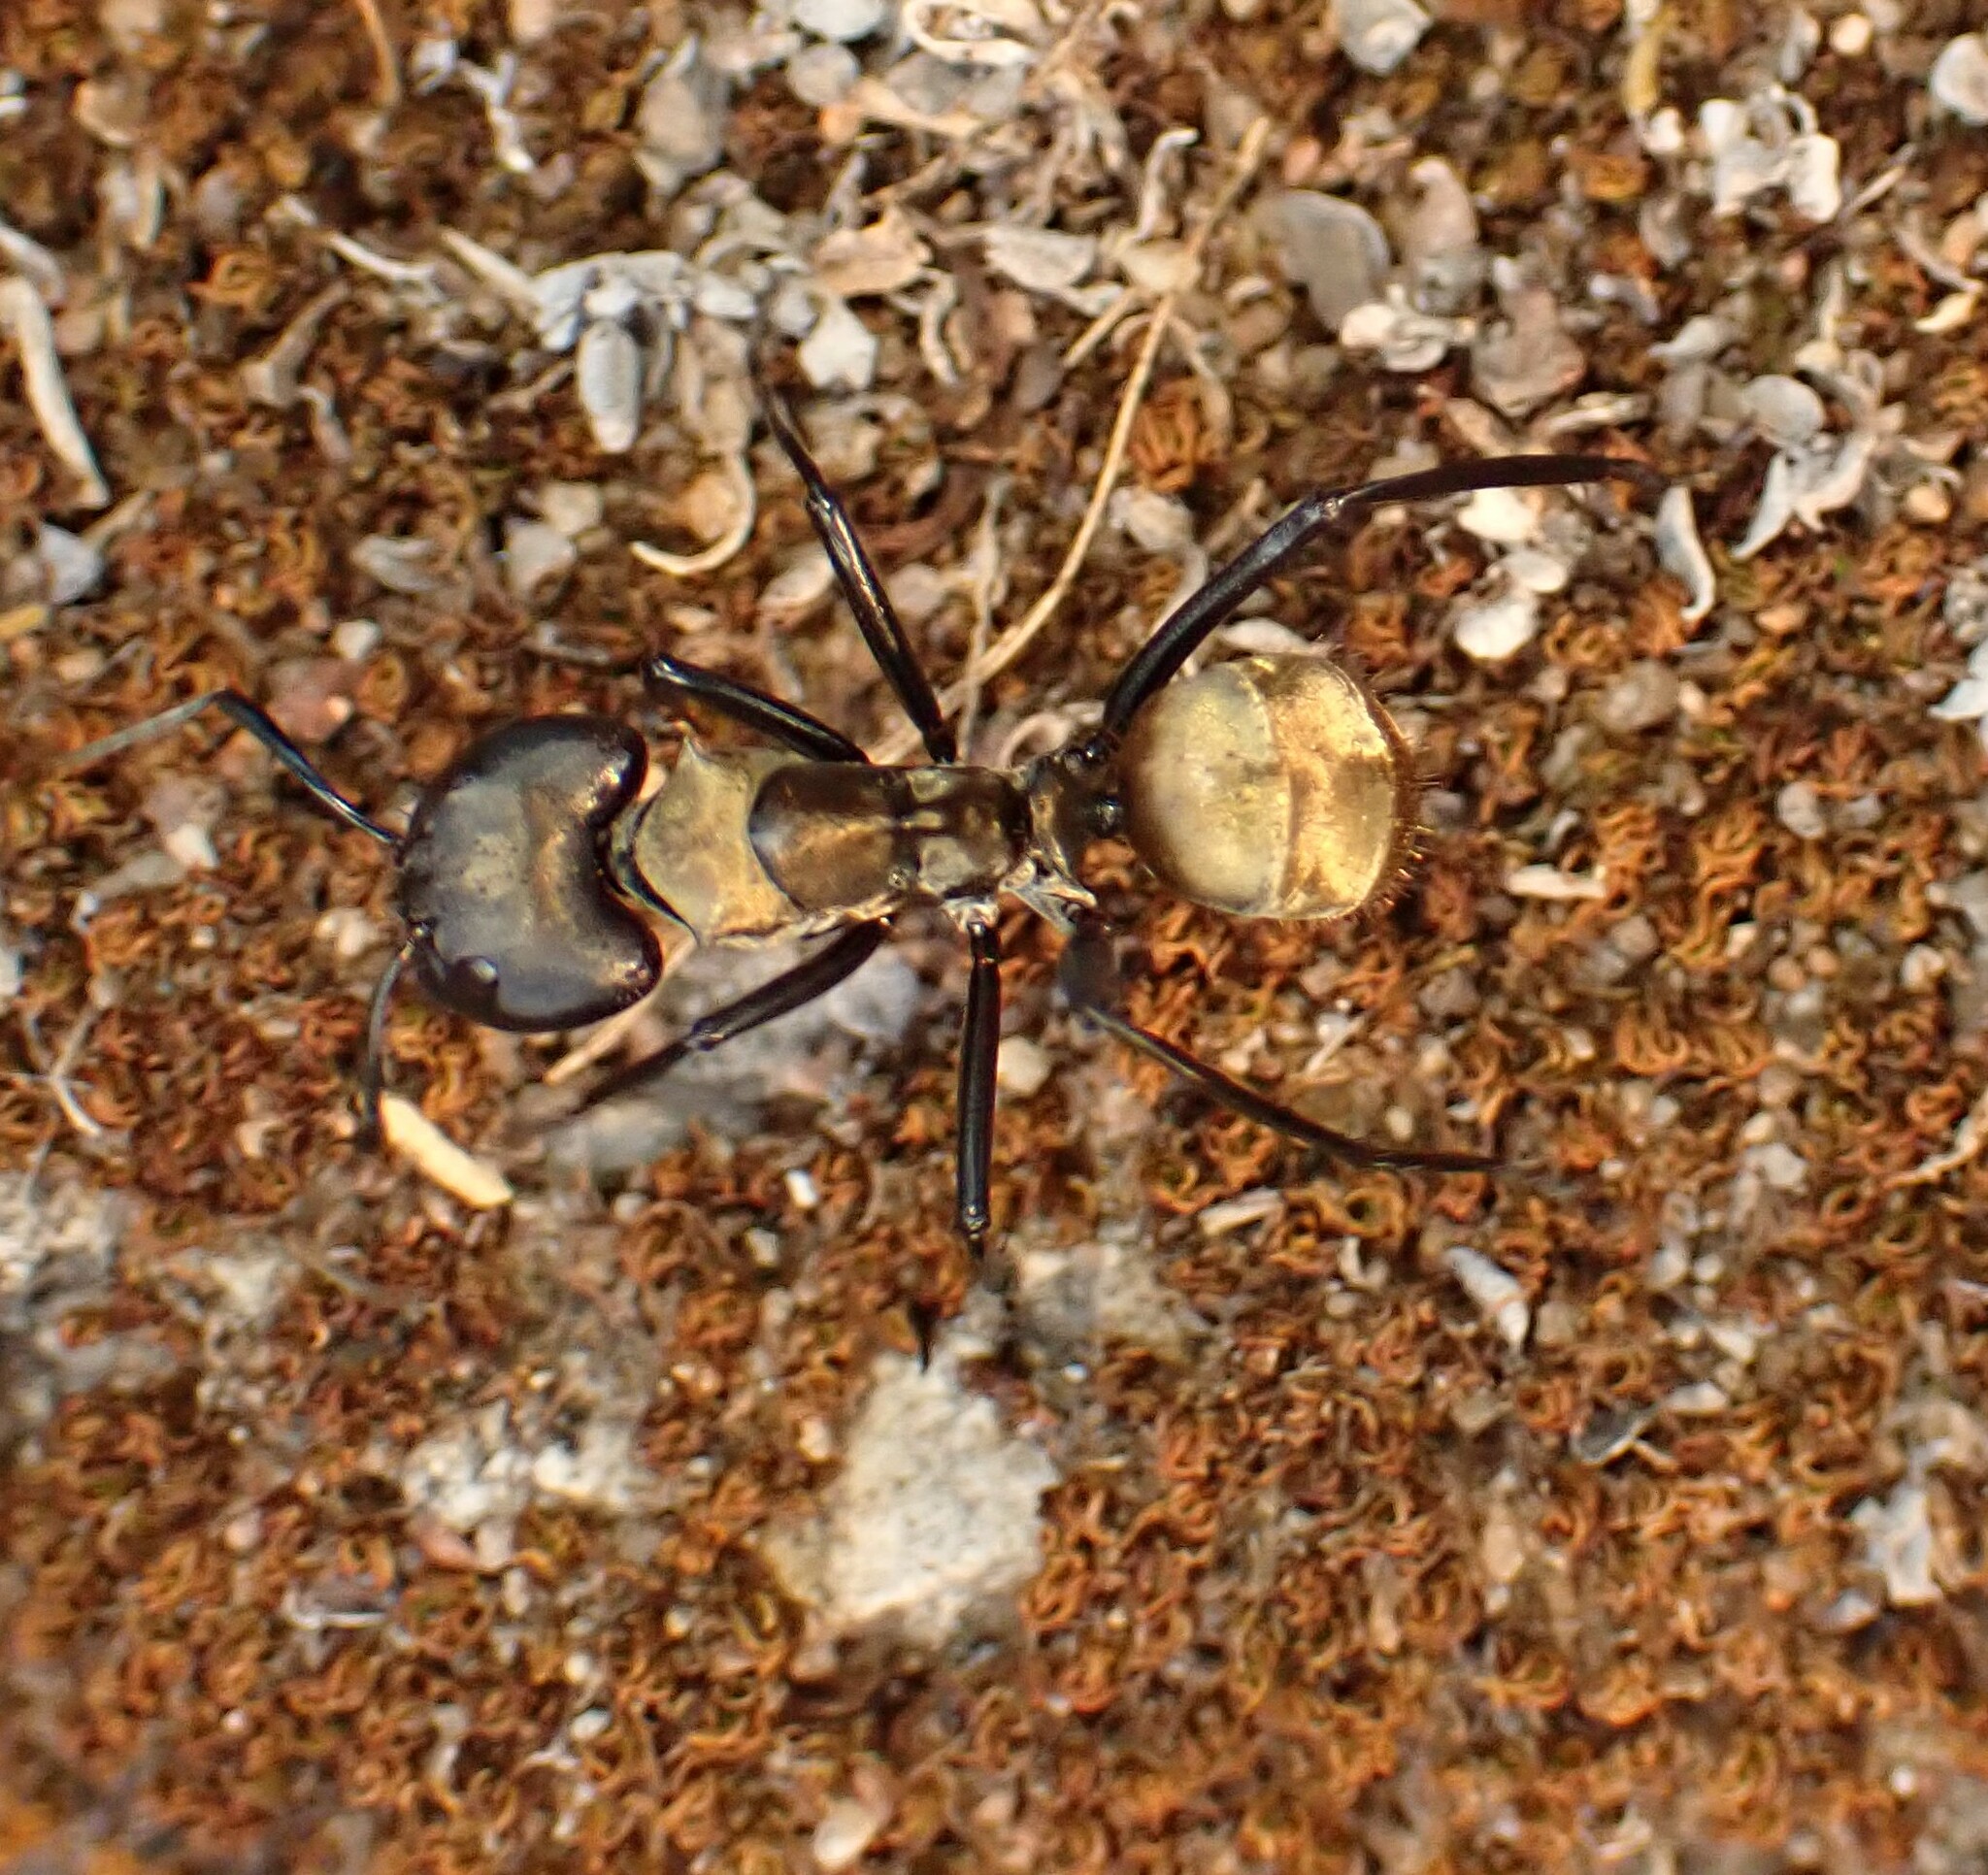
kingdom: Animalia
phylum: Arthropoda
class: Insecta
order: Hymenoptera
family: Formicidae
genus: Camponotus
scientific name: Camponotus sericeiventris
